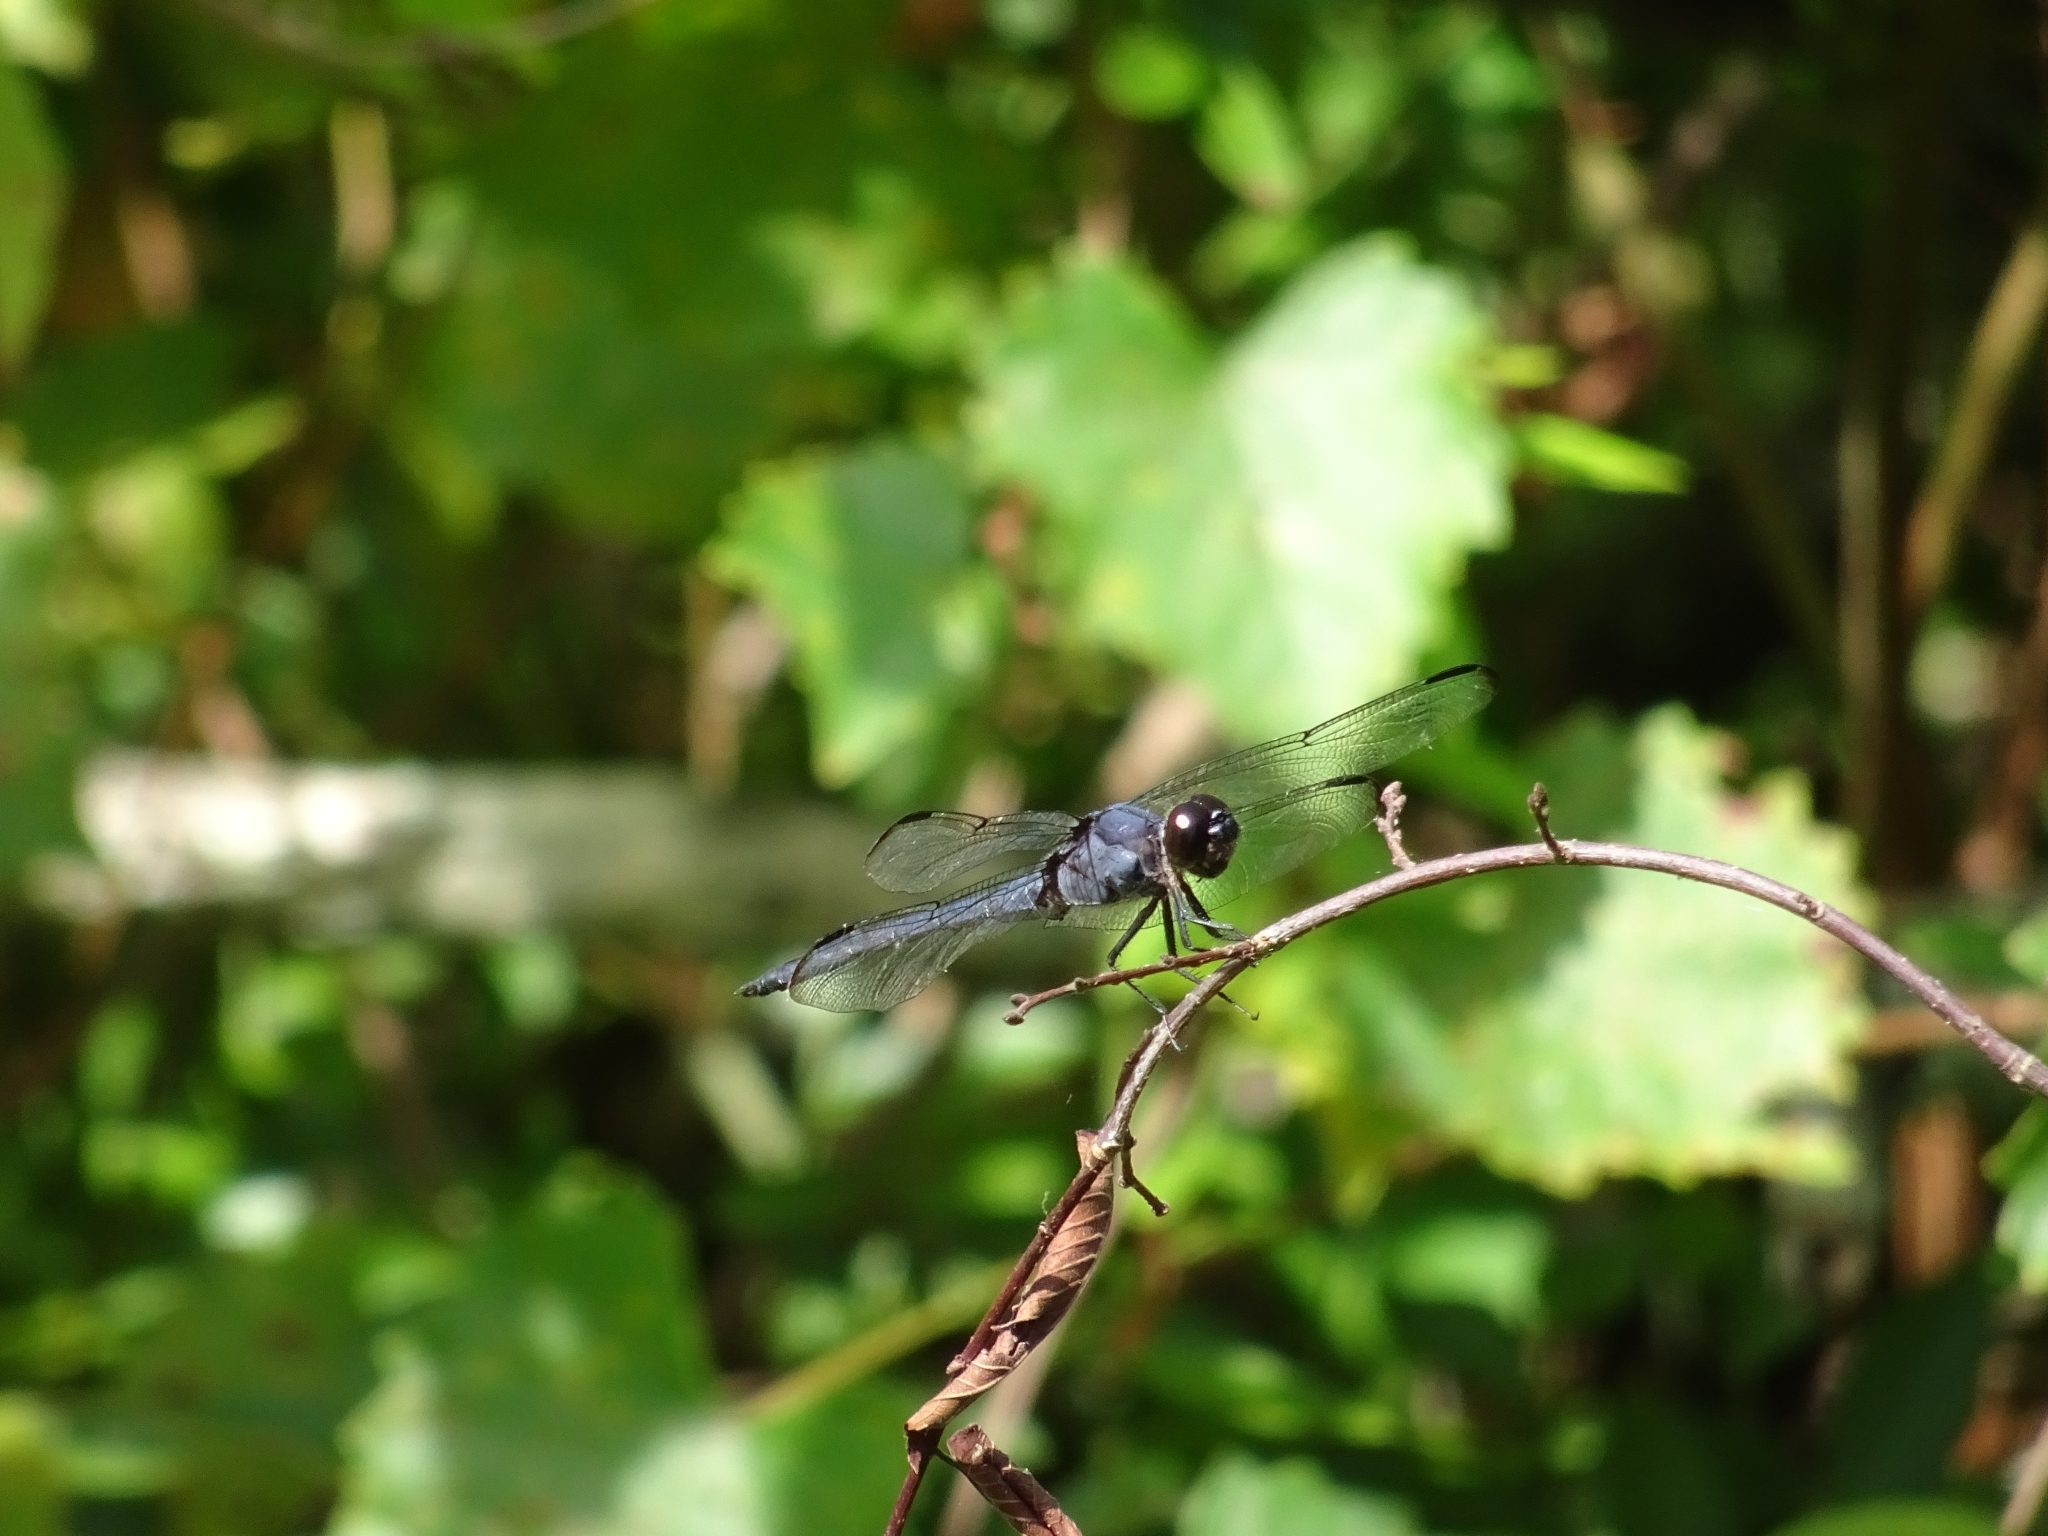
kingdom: Animalia
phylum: Arthropoda
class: Insecta
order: Odonata
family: Libellulidae
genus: Libellula
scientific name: Libellula incesta
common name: Slaty skimmer
